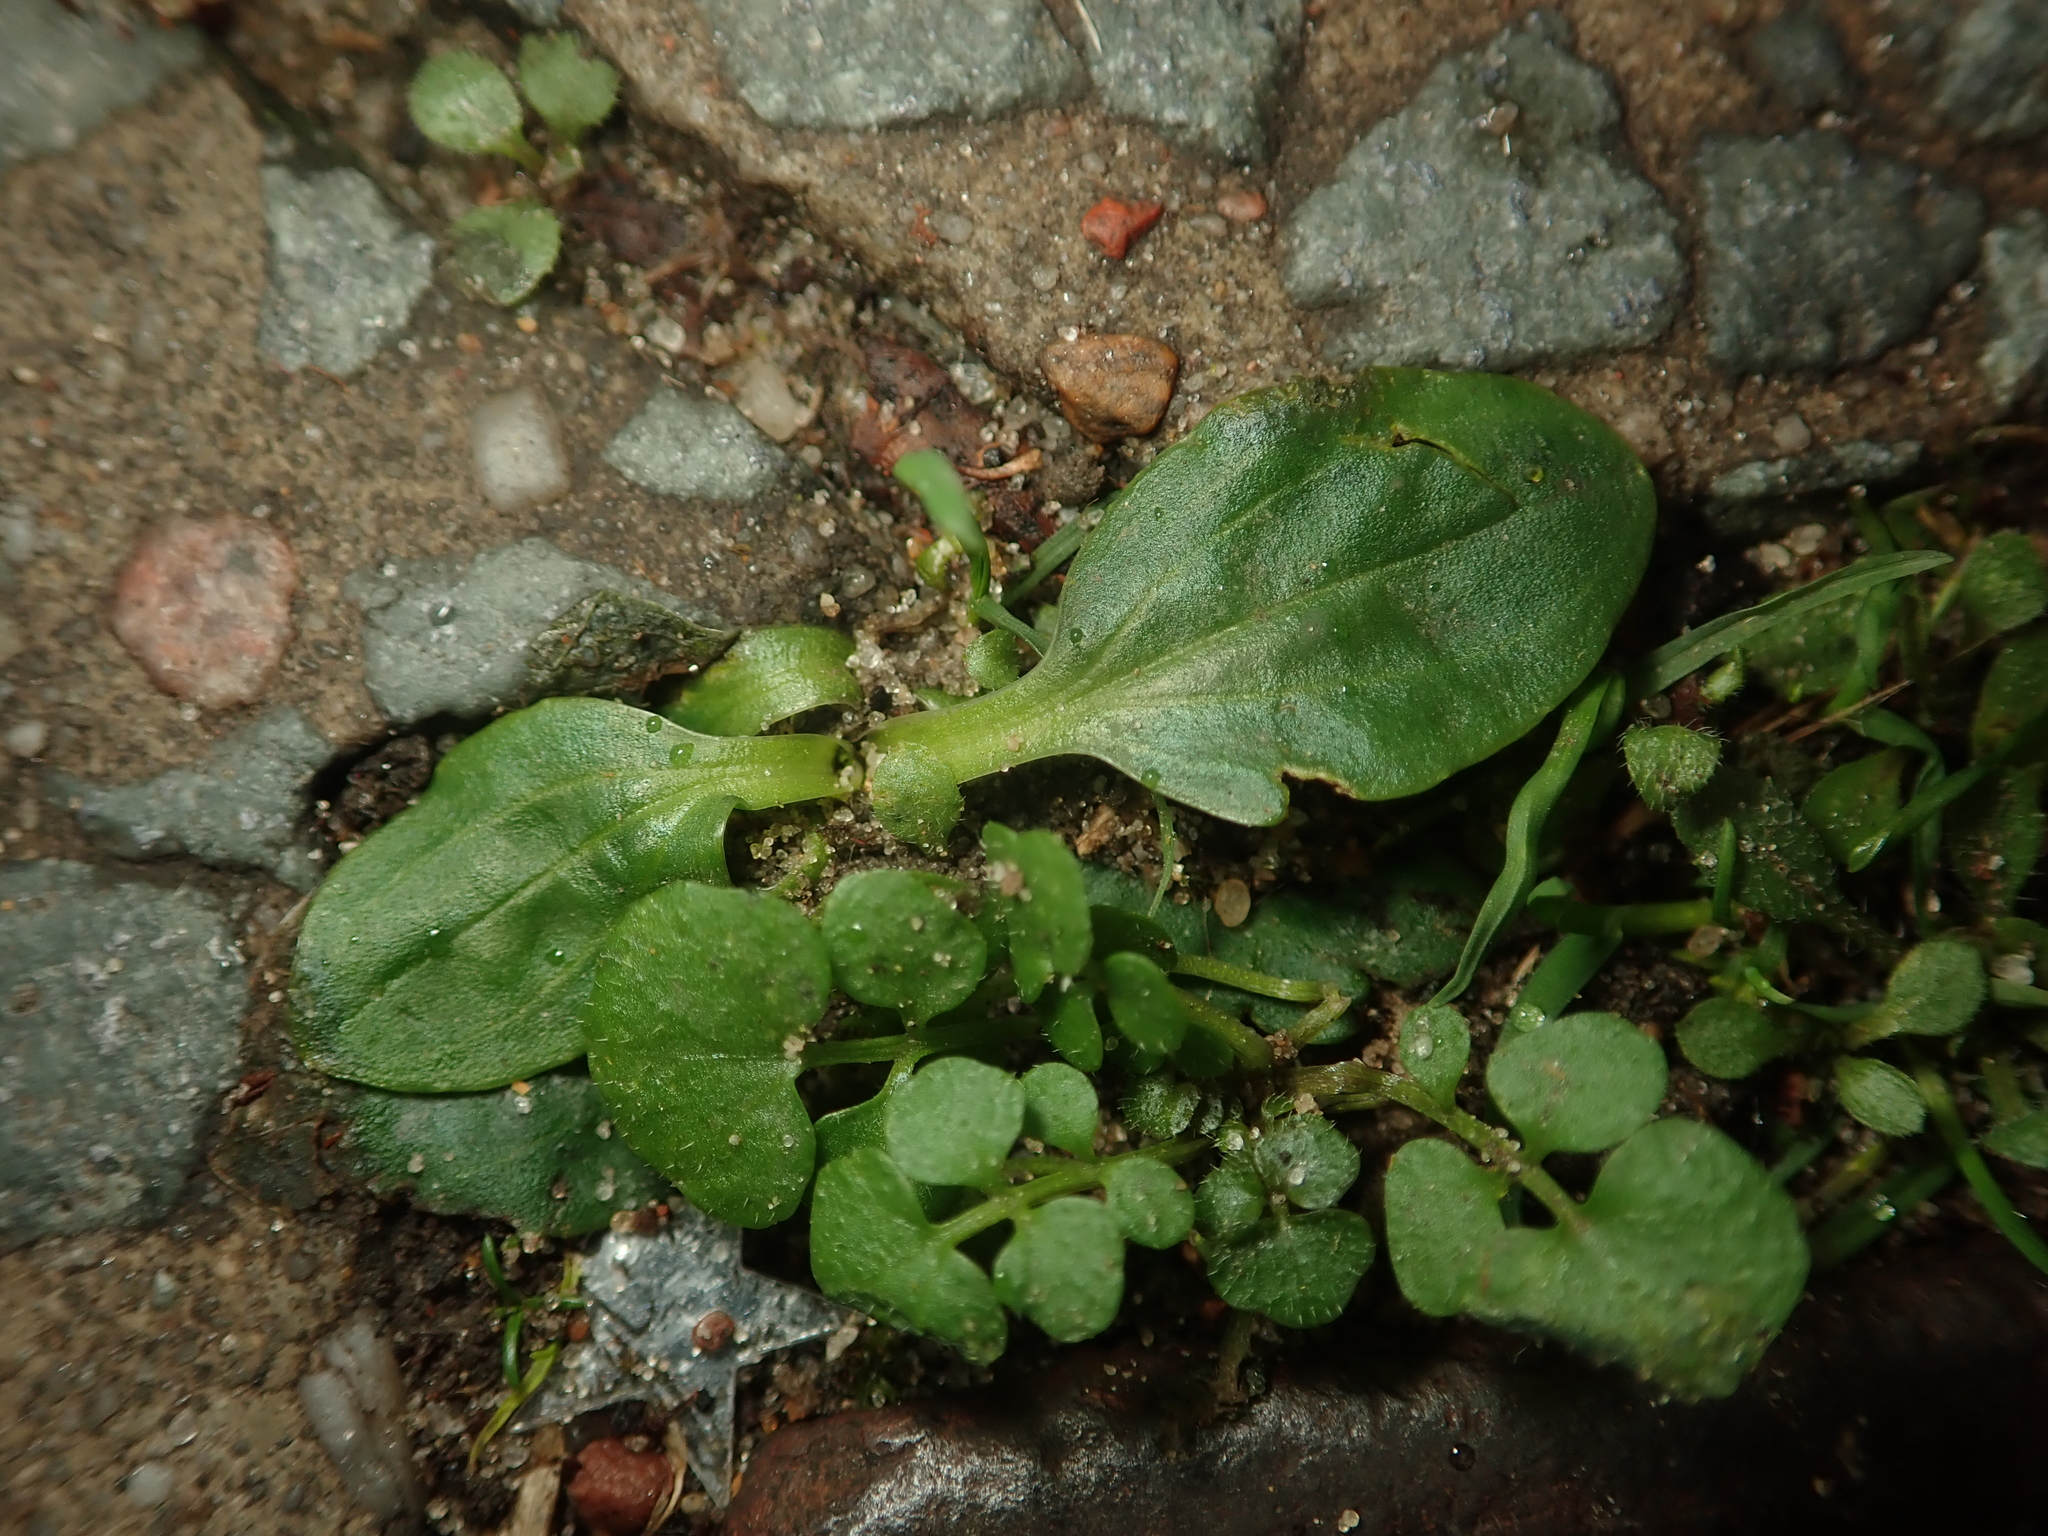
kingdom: Plantae
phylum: Tracheophyta
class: Magnoliopsida
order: Lamiales
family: Plantaginaceae
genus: Plantago
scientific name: Plantago major
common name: Common plantain
